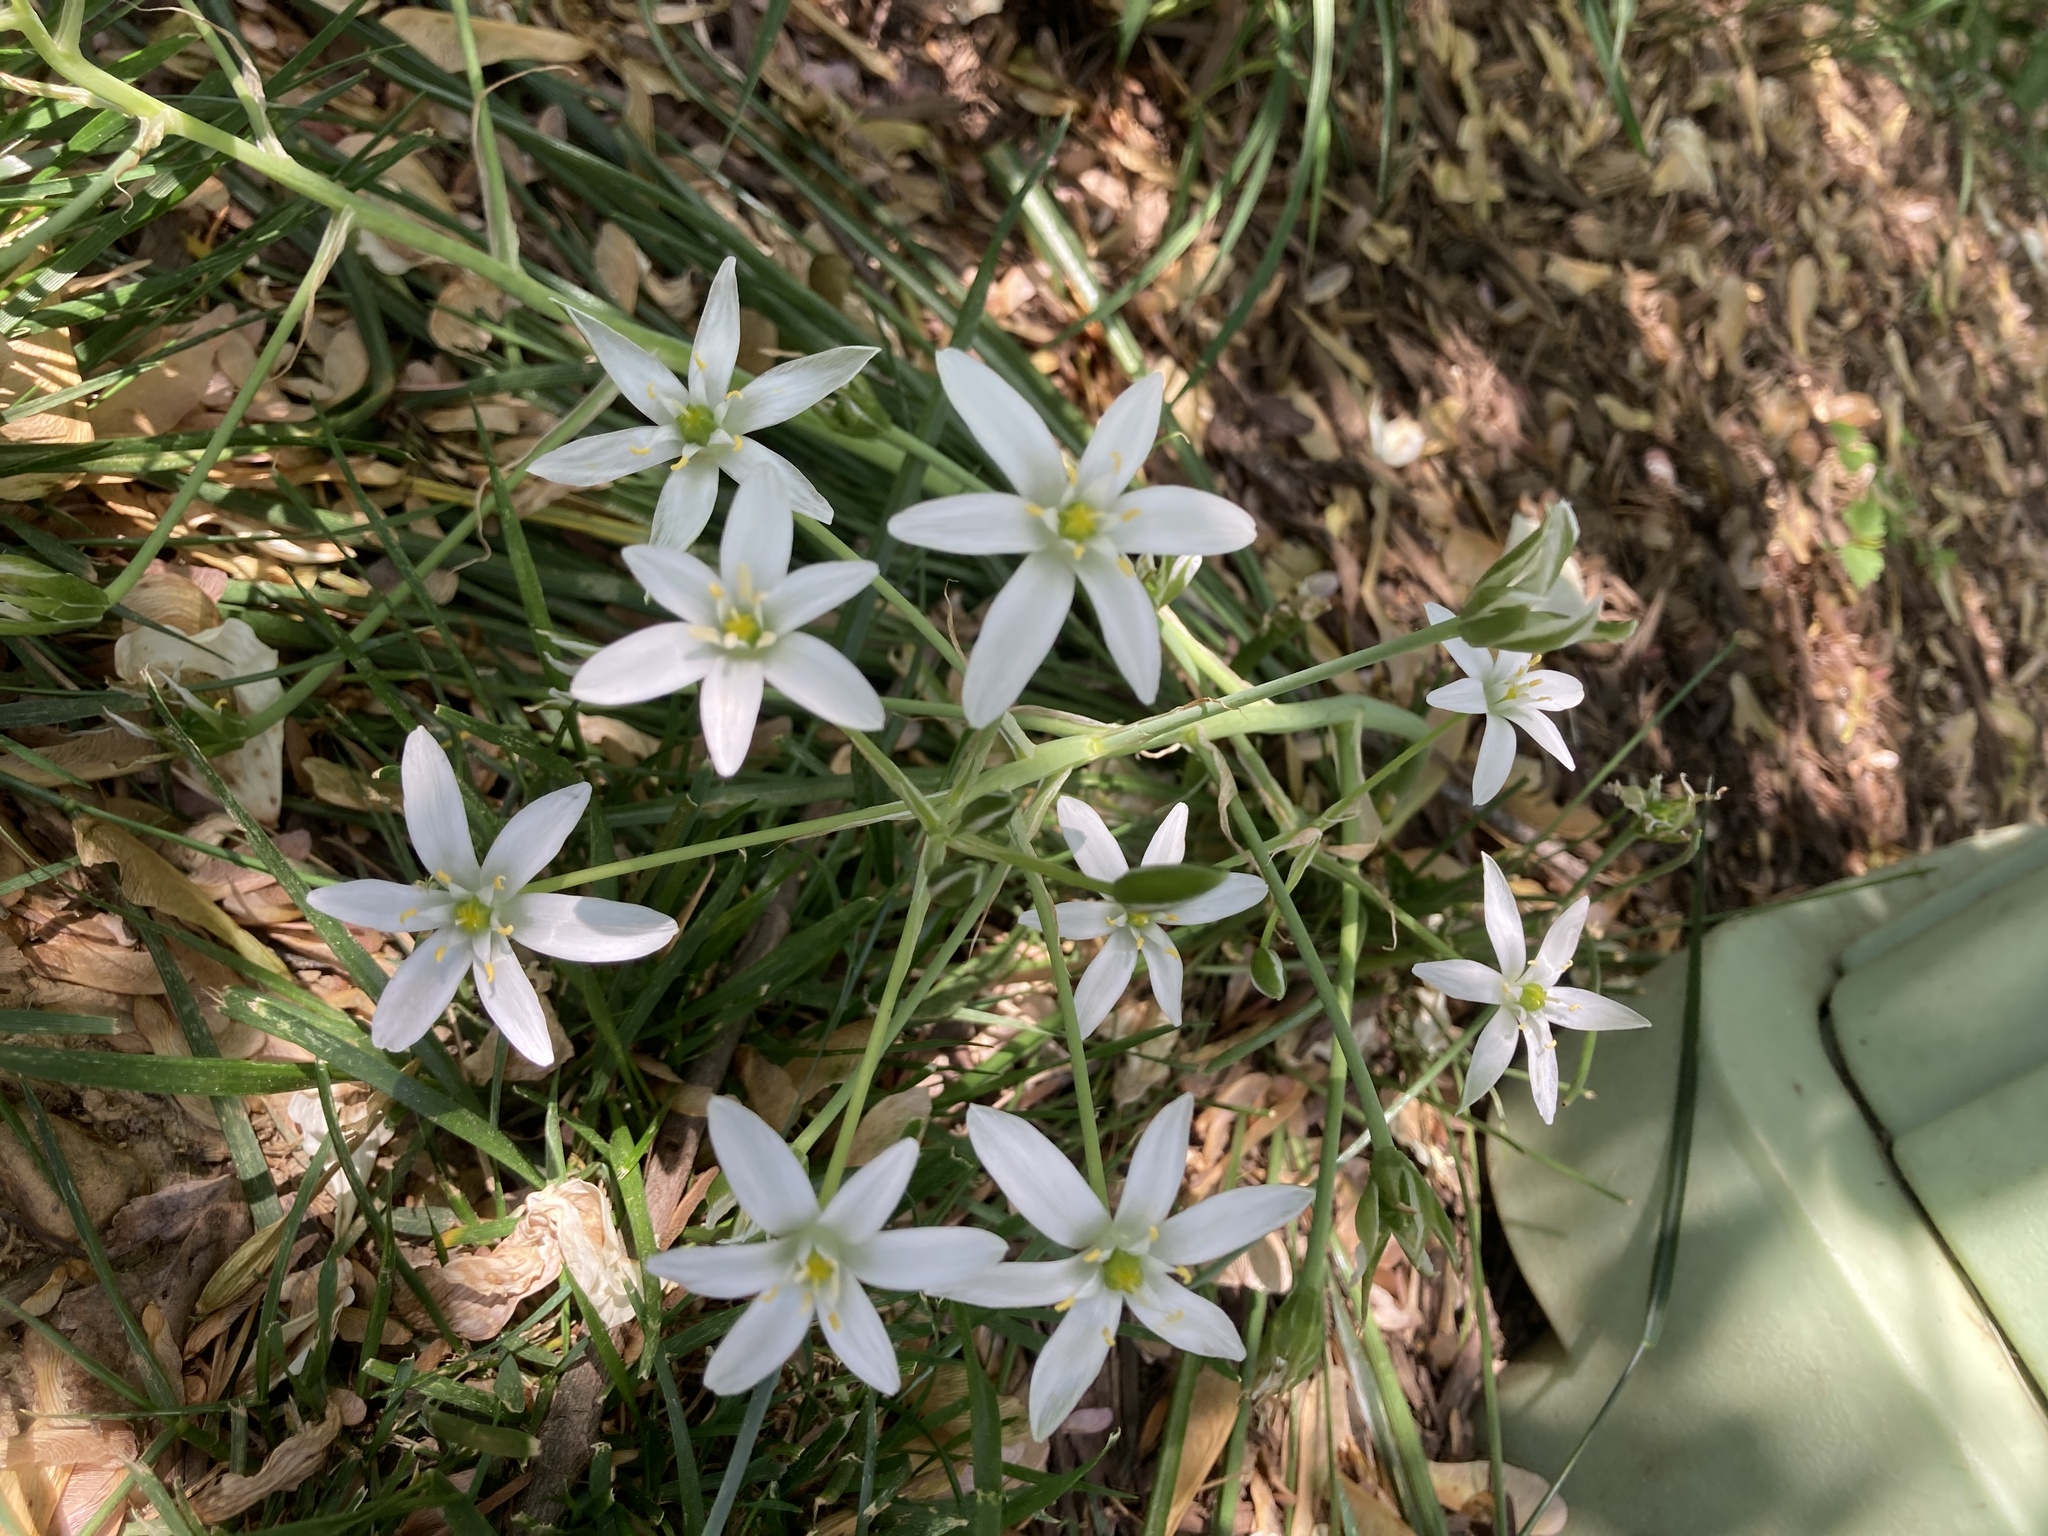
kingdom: Plantae
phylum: Tracheophyta
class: Liliopsida
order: Asparagales
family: Asparagaceae
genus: Ornithogalum
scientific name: Ornithogalum umbellatum
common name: Garden star-of-bethlehem
